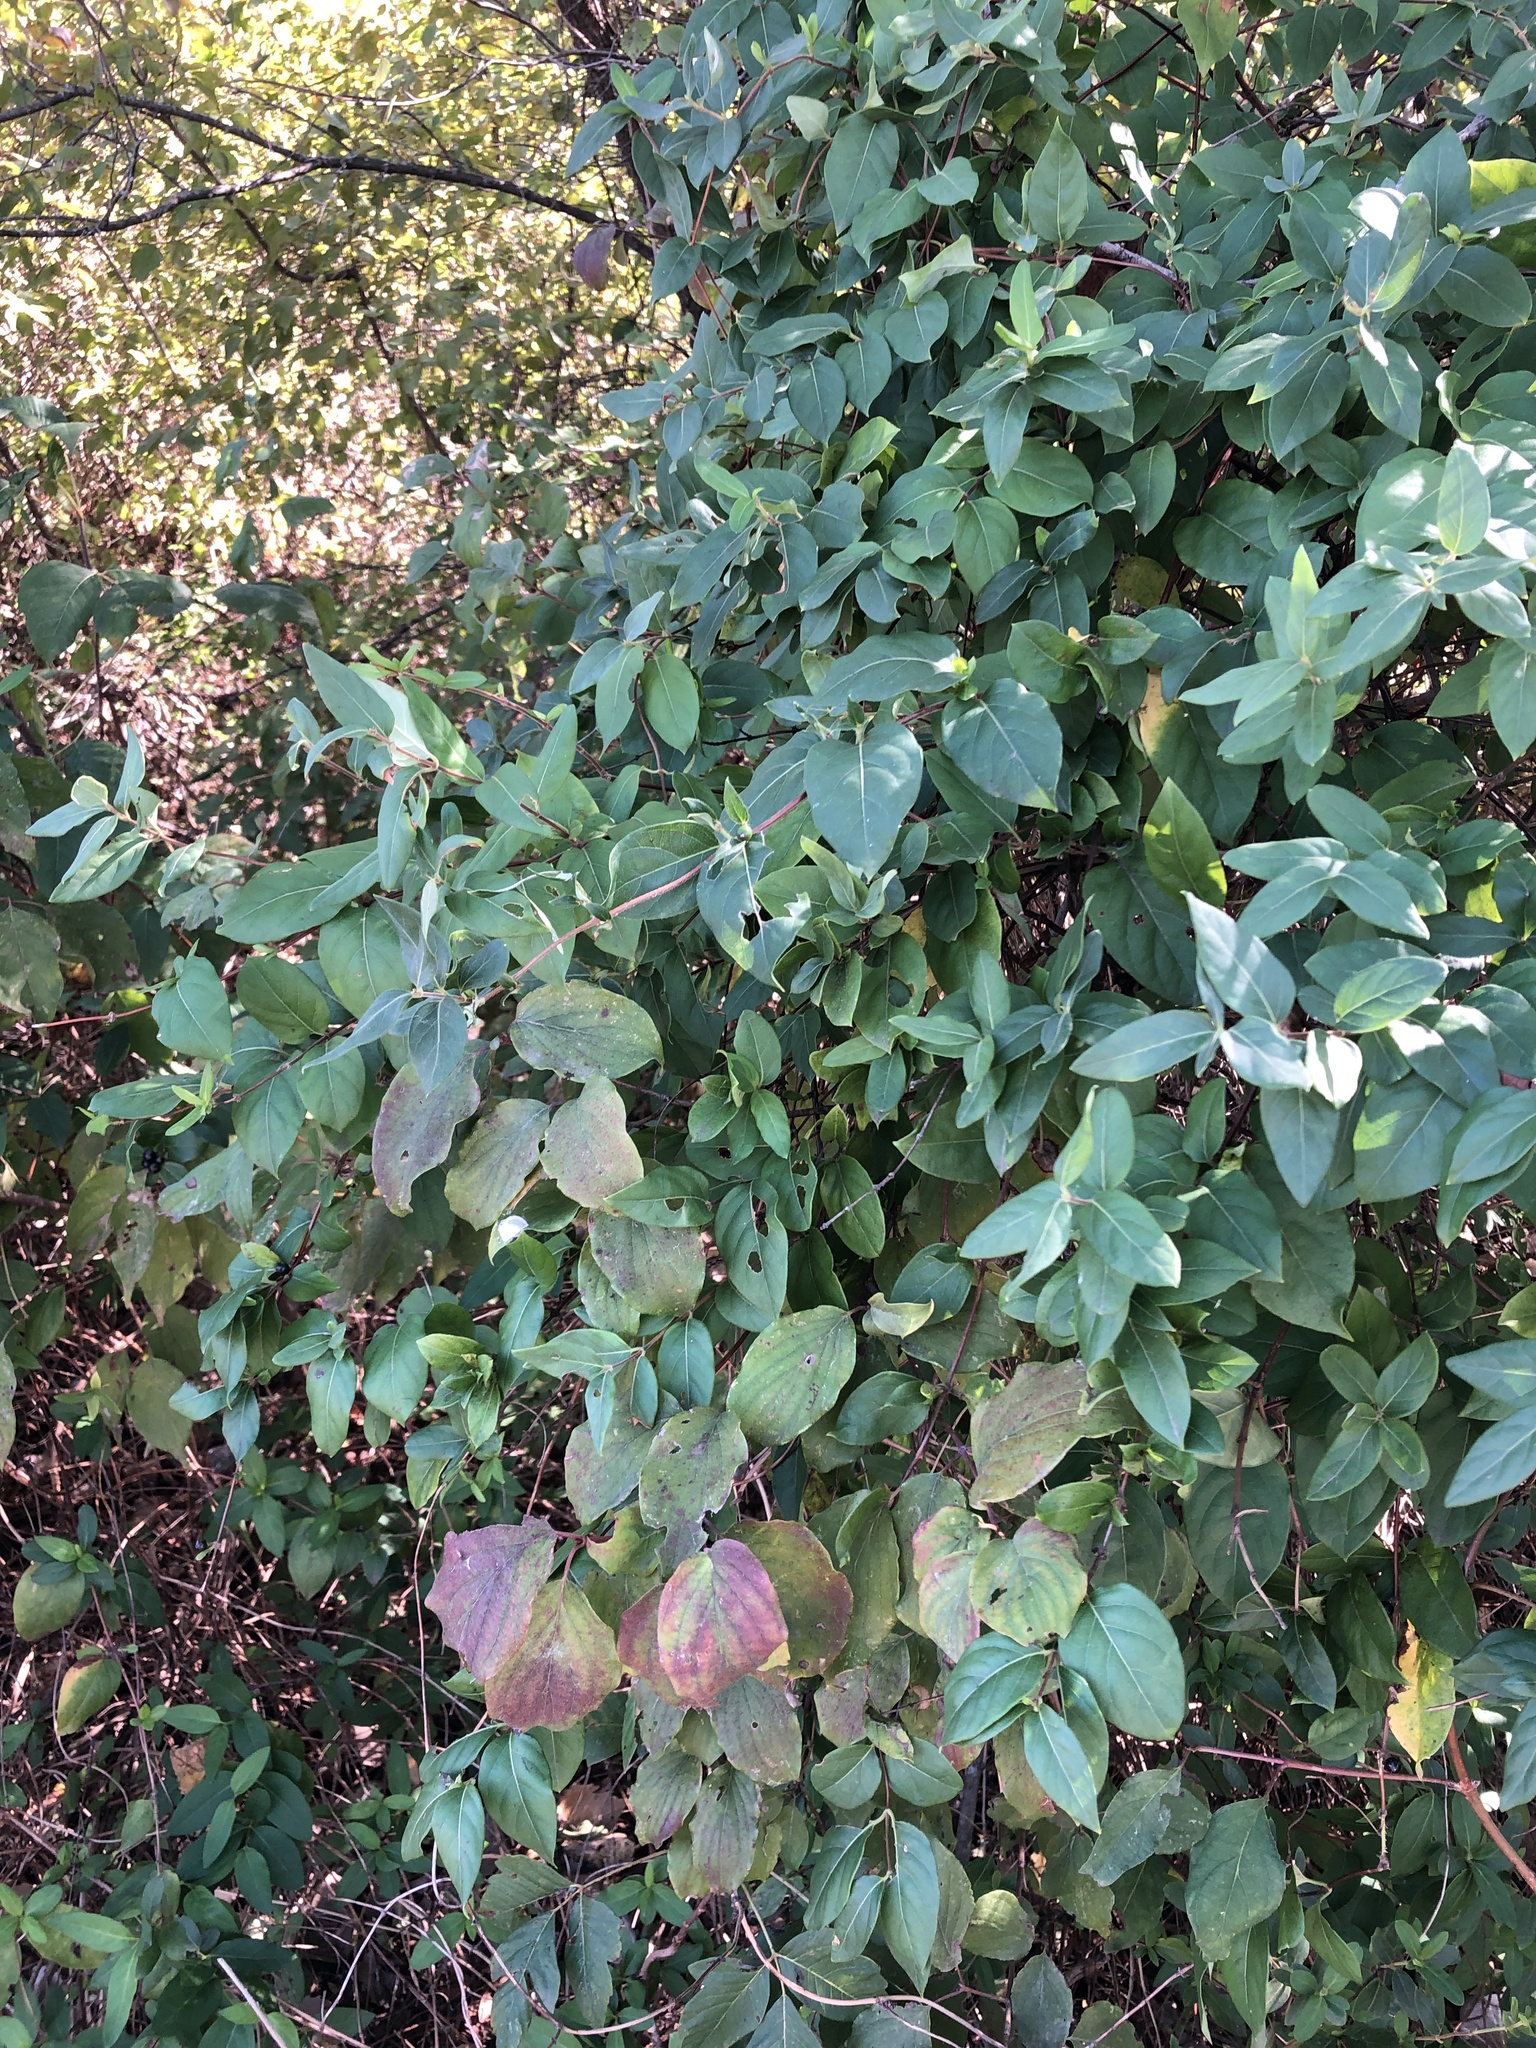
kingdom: Plantae
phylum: Tracheophyta
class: Magnoliopsida
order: Dipsacales
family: Caprifoliaceae
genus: Lonicera
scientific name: Lonicera japonica
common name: Japanese honeysuckle
